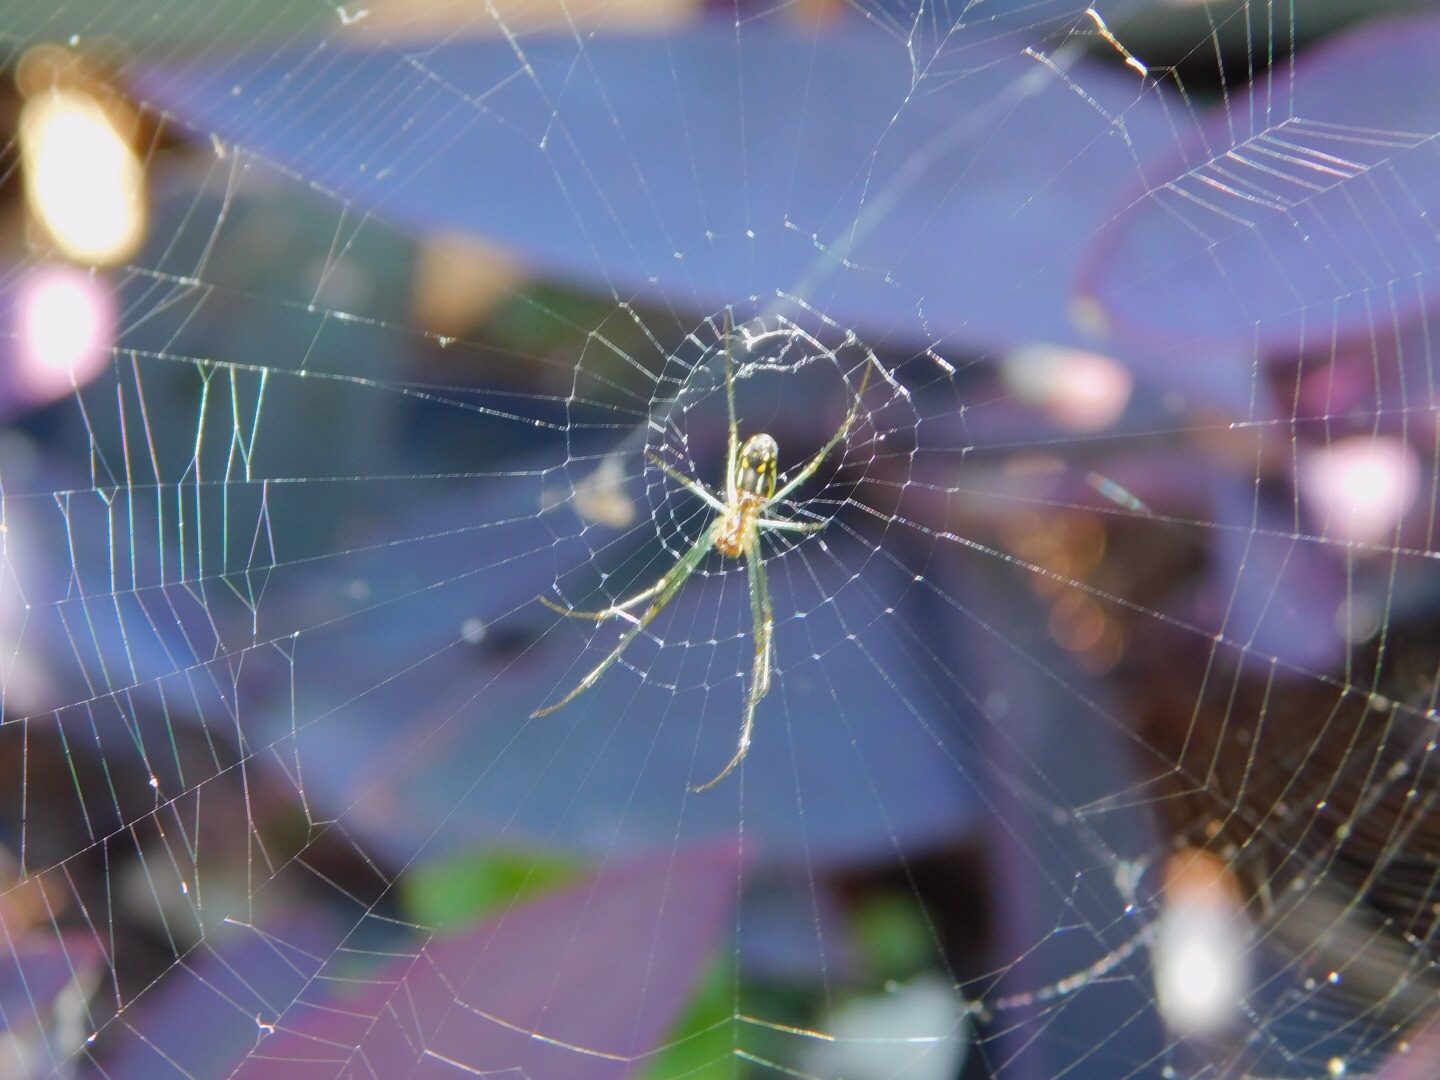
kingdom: Animalia
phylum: Arthropoda
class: Arachnida
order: Araneae
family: Tetragnathidae
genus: Leucauge
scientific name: Leucauge argyra
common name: Longjawed orb weavers
